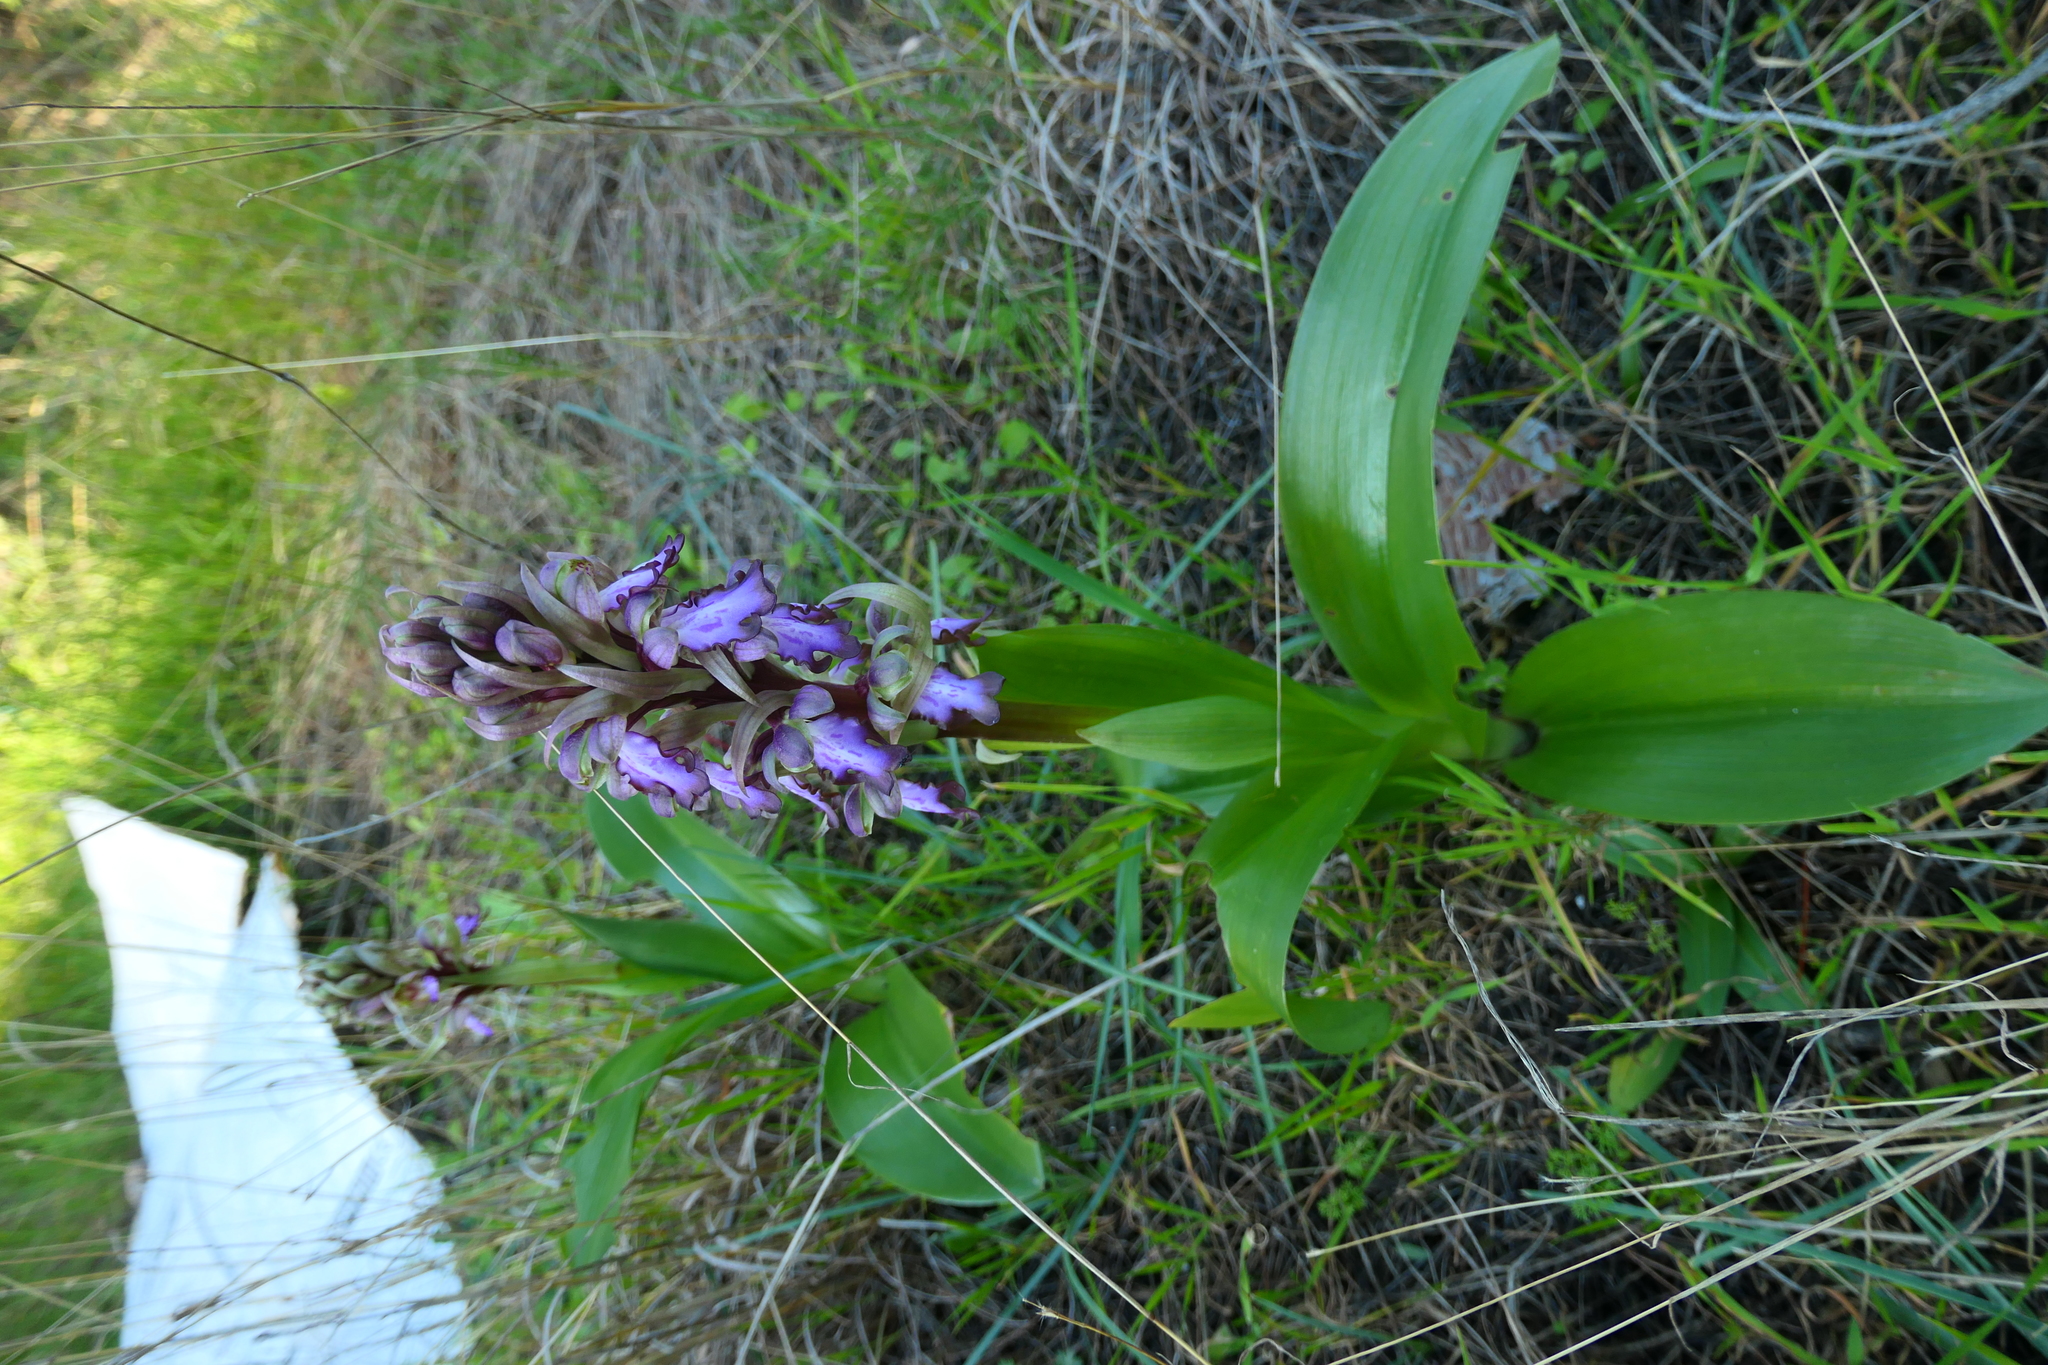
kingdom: Plantae
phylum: Tracheophyta
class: Liliopsida
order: Asparagales
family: Orchidaceae
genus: Himantoglossum
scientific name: Himantoglossum robertianum
